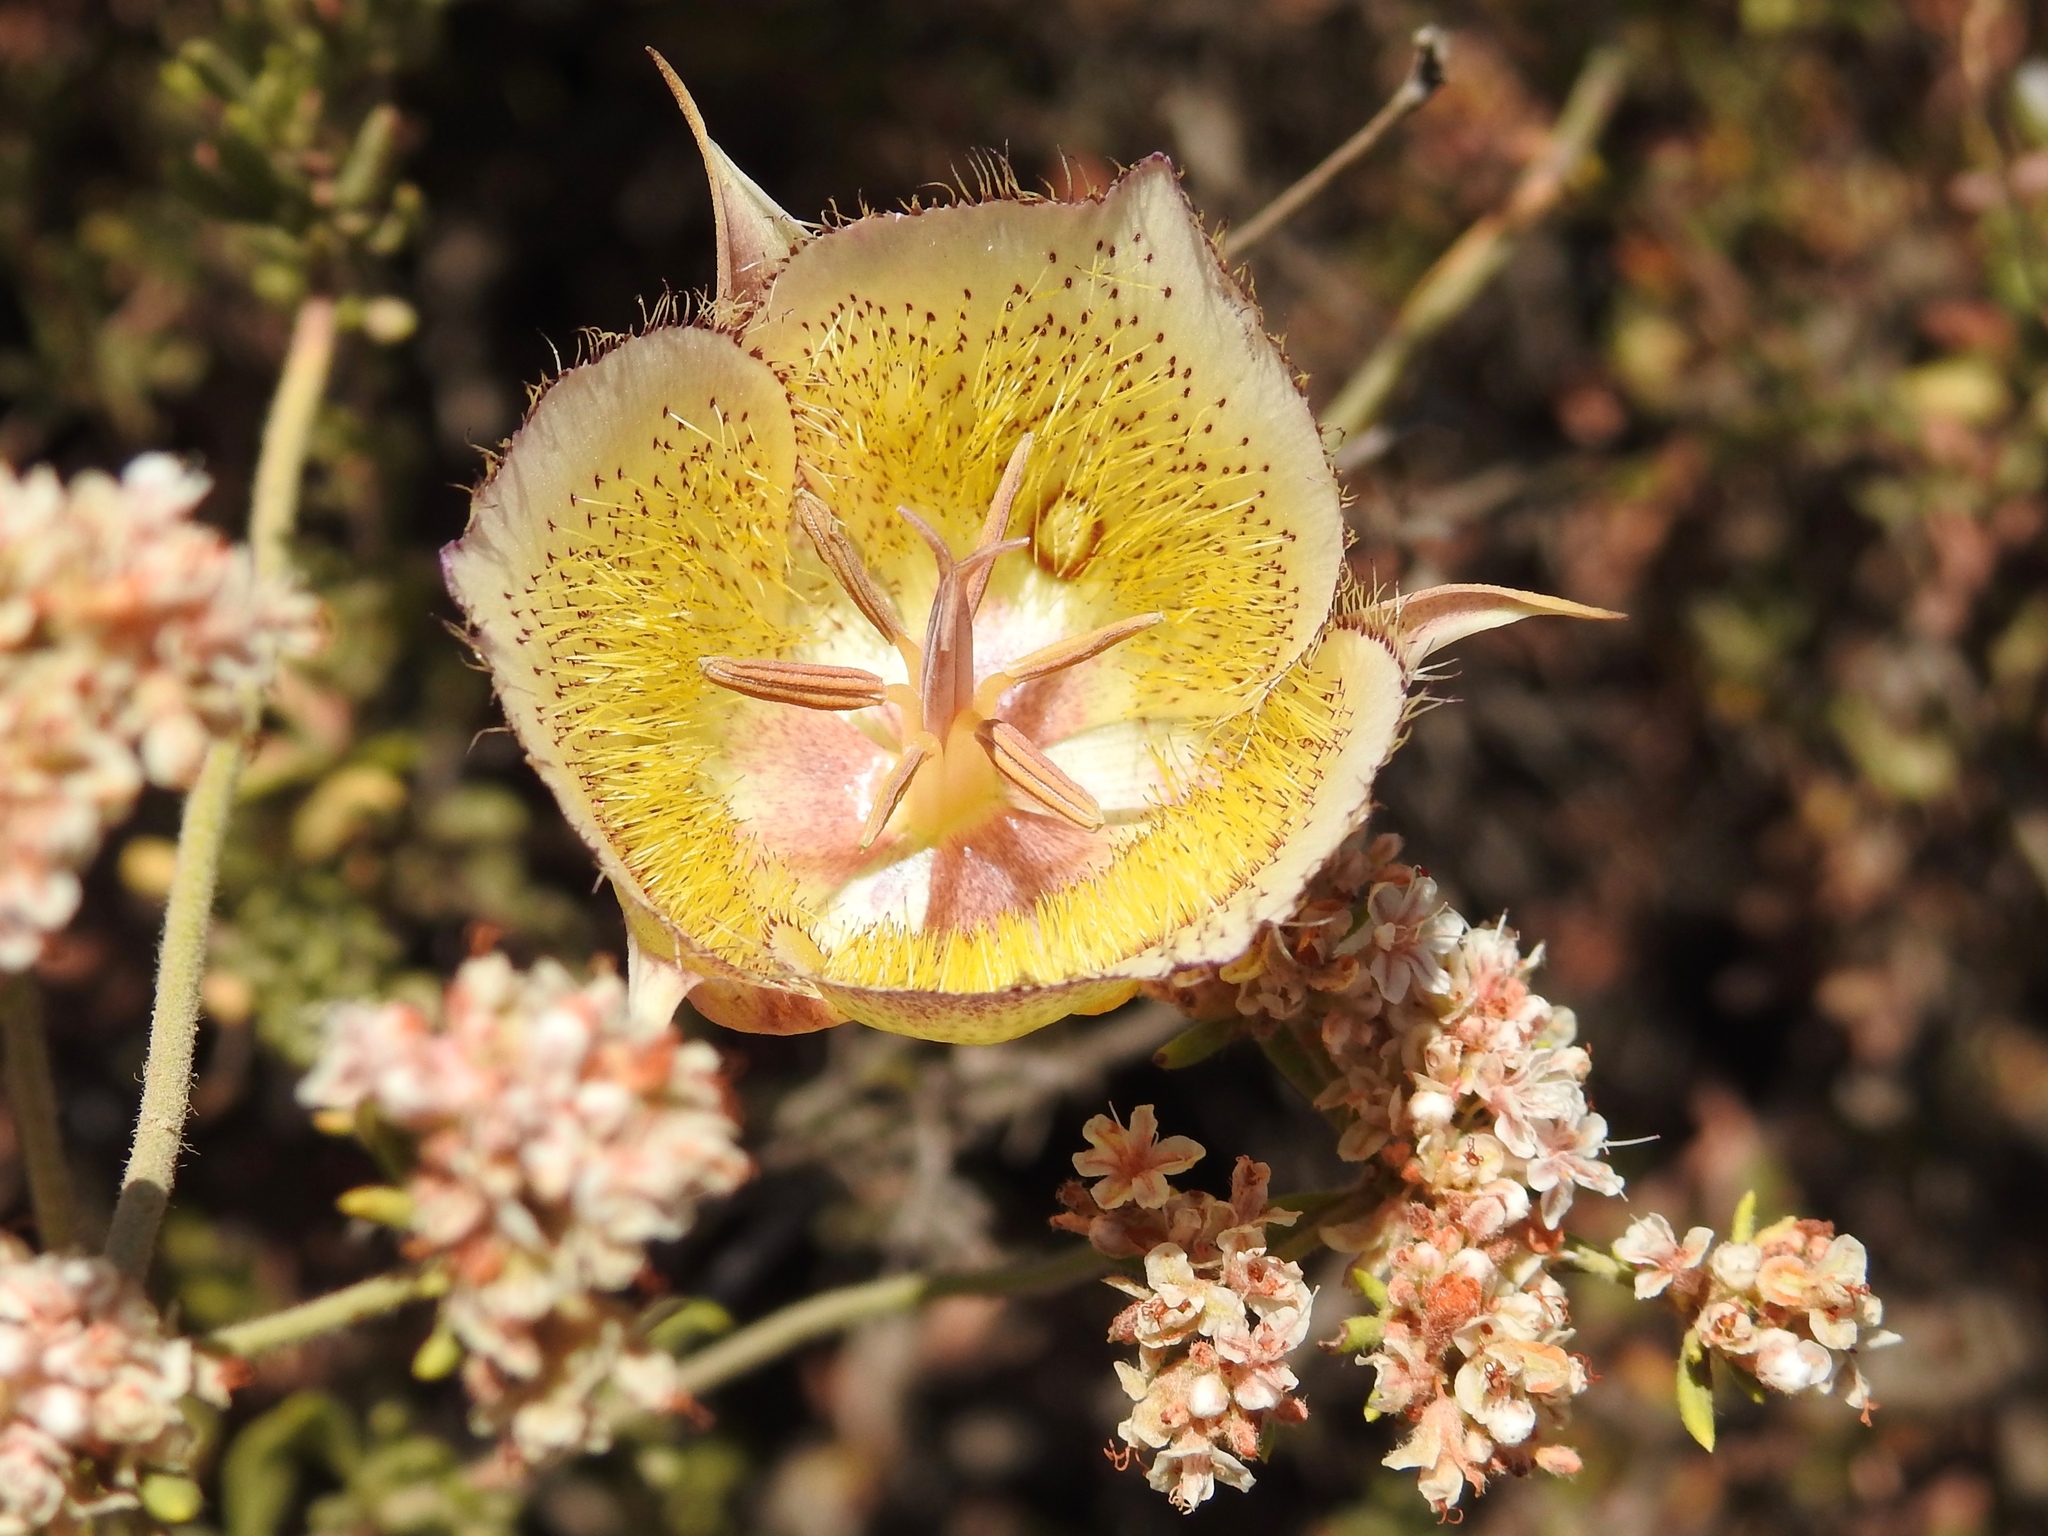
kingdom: Plantae
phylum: Tracheophyta
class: Liliopsida
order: Liliales
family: Liliaceae
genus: Calochortus
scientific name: Calochortus weedii
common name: Weed's mariposa-lily
